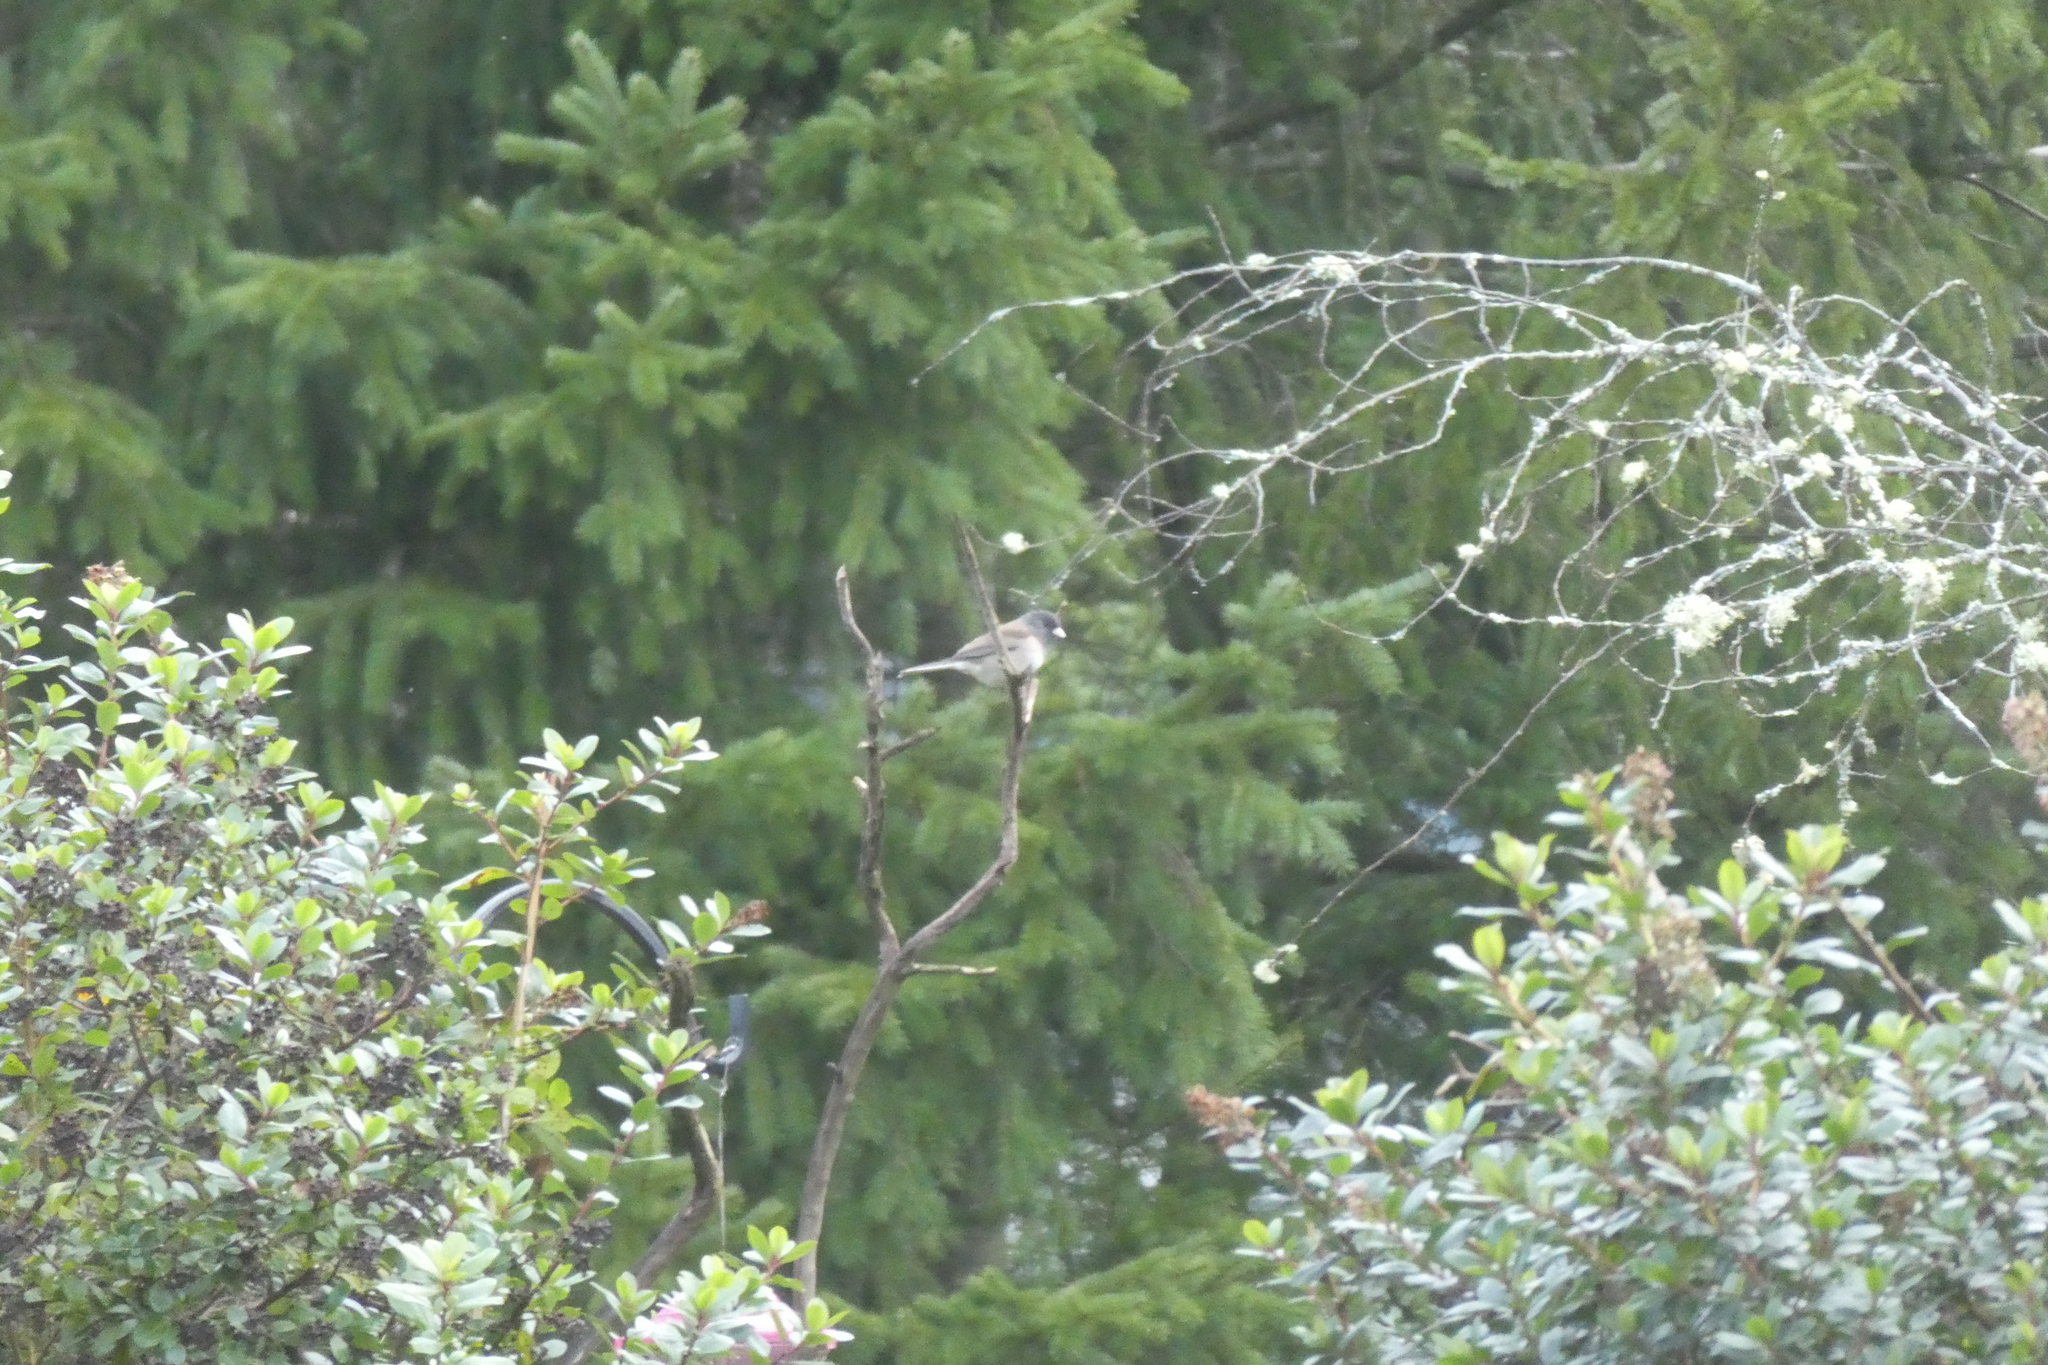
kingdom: Animalia
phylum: Chordata
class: Aves
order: Passeriformes
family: Passerellidae
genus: Junco
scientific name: Junco hyemalis
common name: Dark-eyed junco
